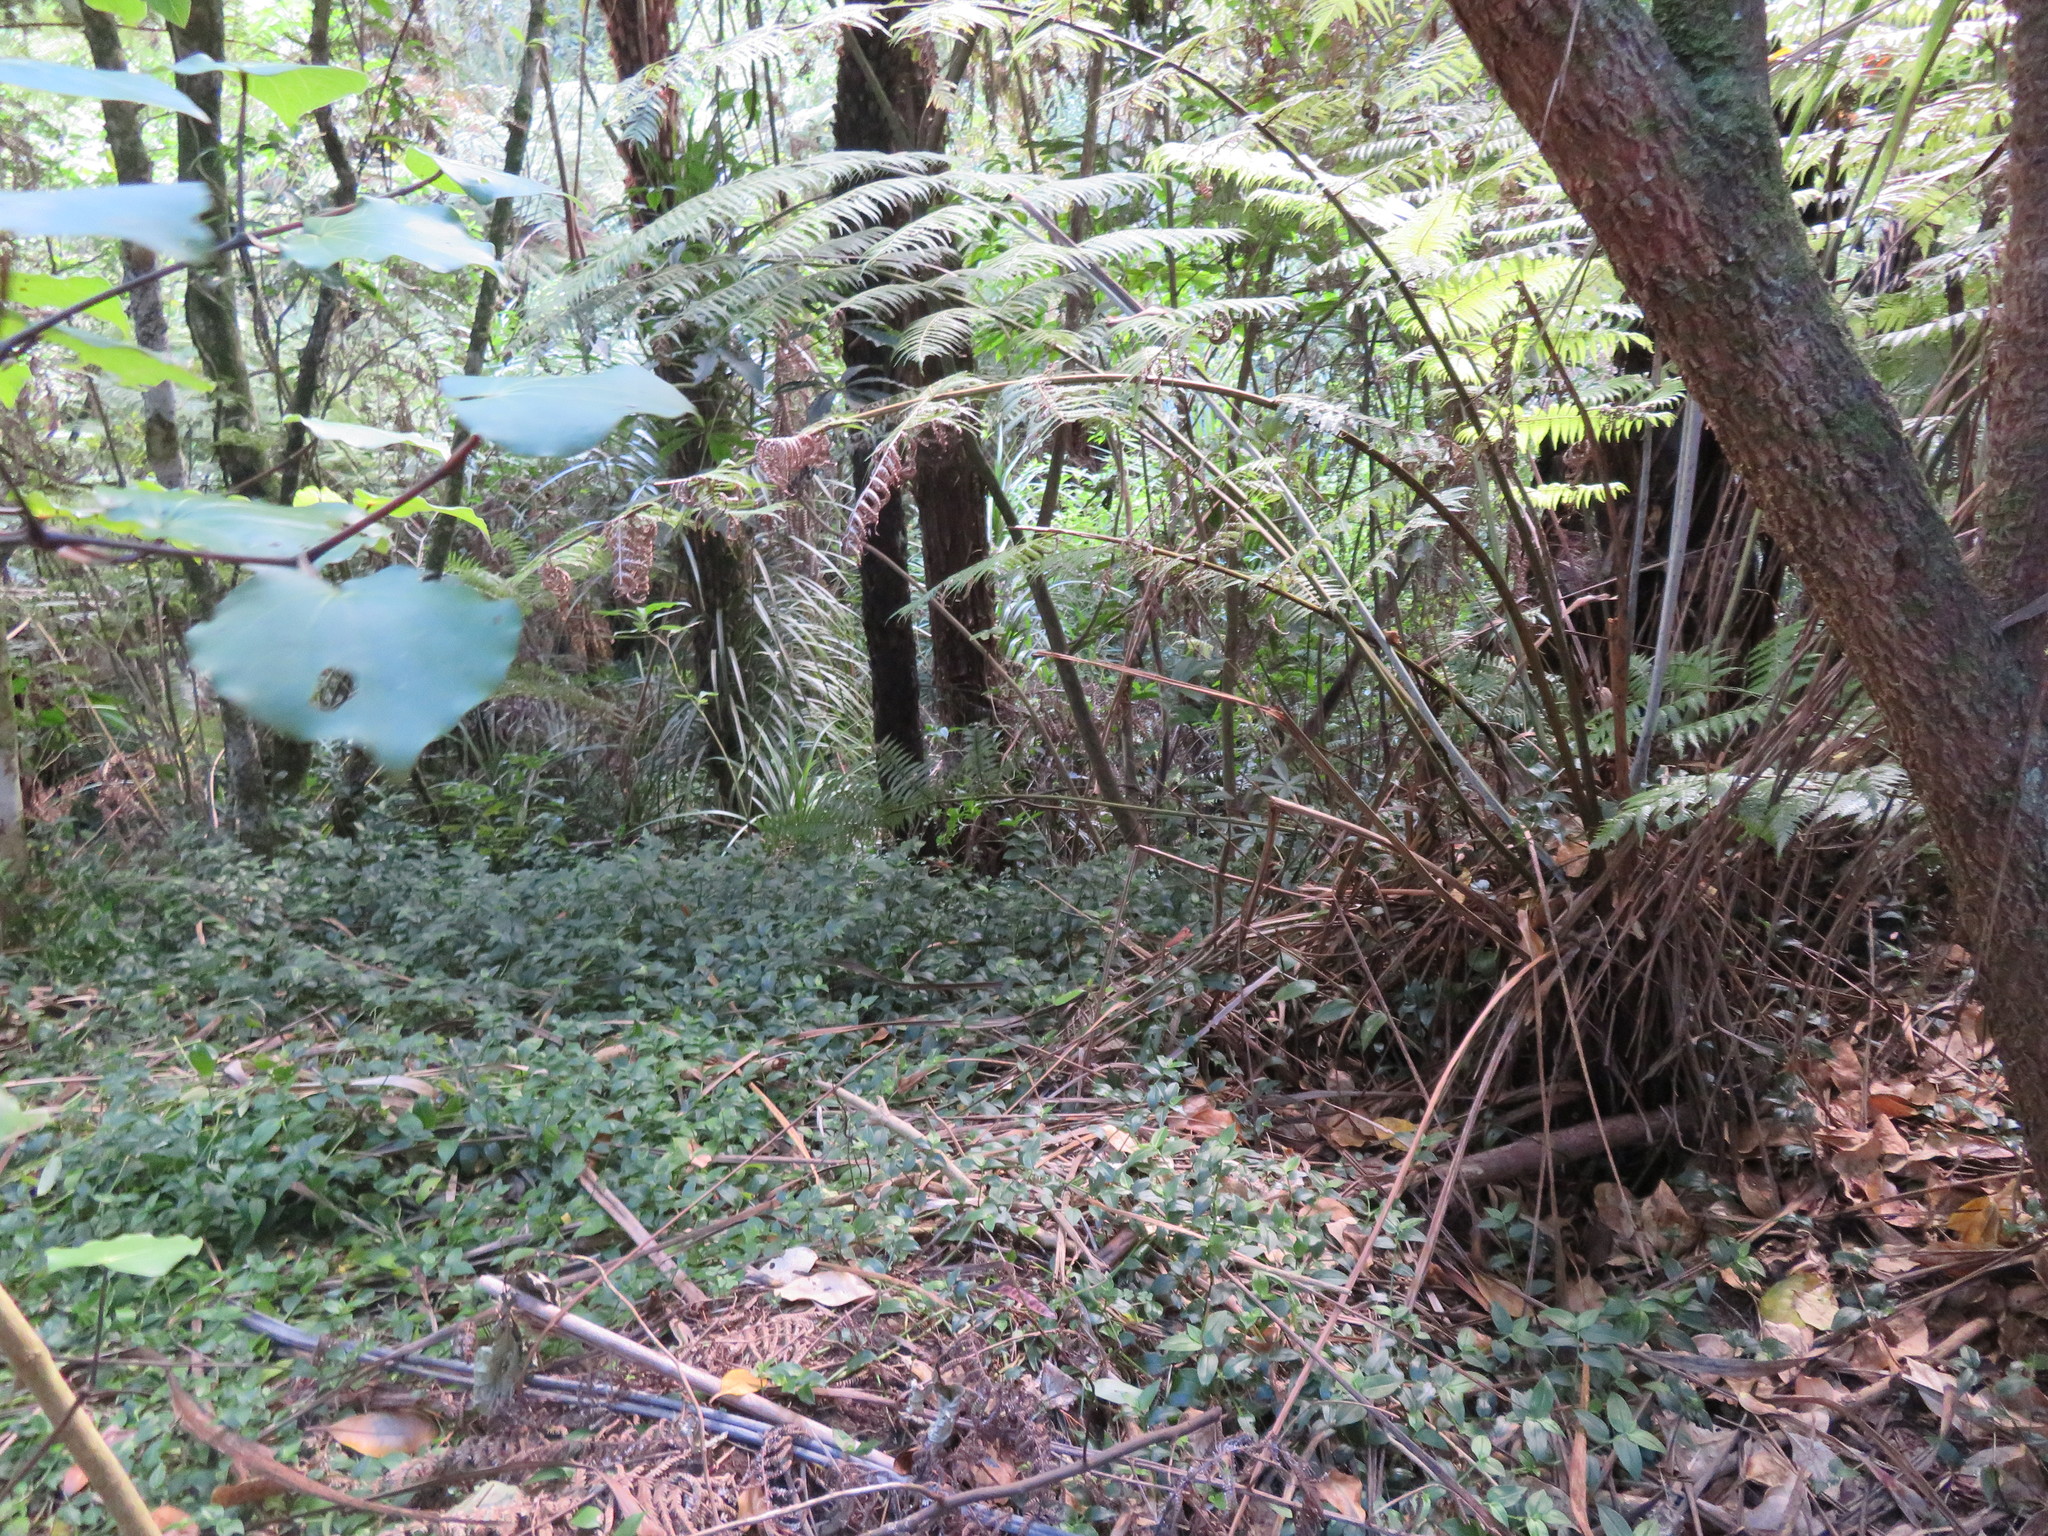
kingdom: Plantae
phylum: Tracheophyta
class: Liliopsida
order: Commelinales
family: Commelinaceae
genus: Tradescantia
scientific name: Tradescantia fluminensis
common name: Wandering-jew
